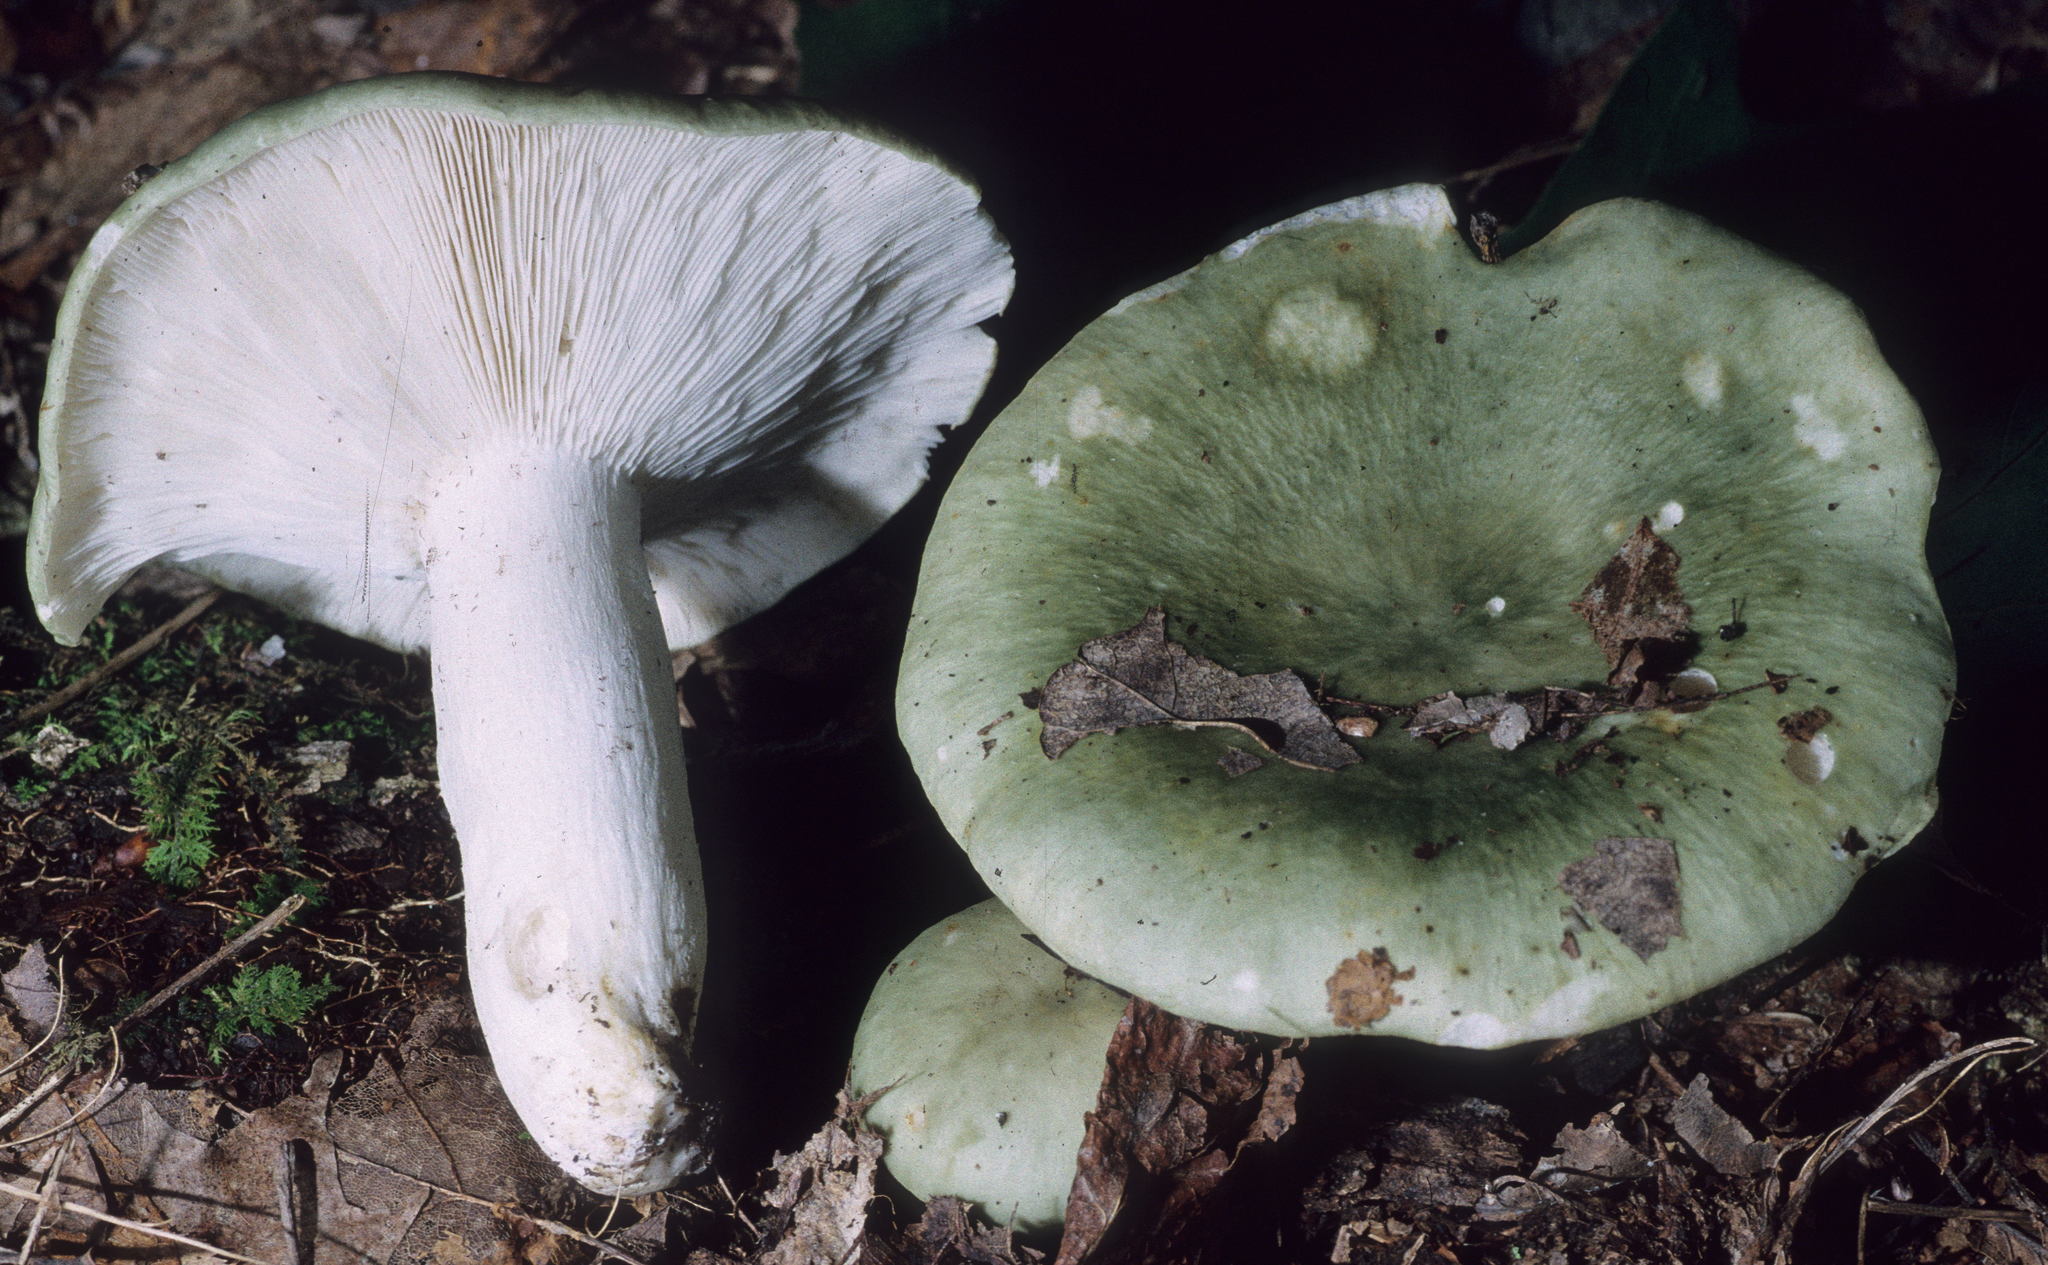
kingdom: Fungi
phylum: Basidiomycota
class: Agaricomycetes
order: Russulales
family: Russulaceae
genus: Russula
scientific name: Russula cyanoxantha
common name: Charcoal burner
